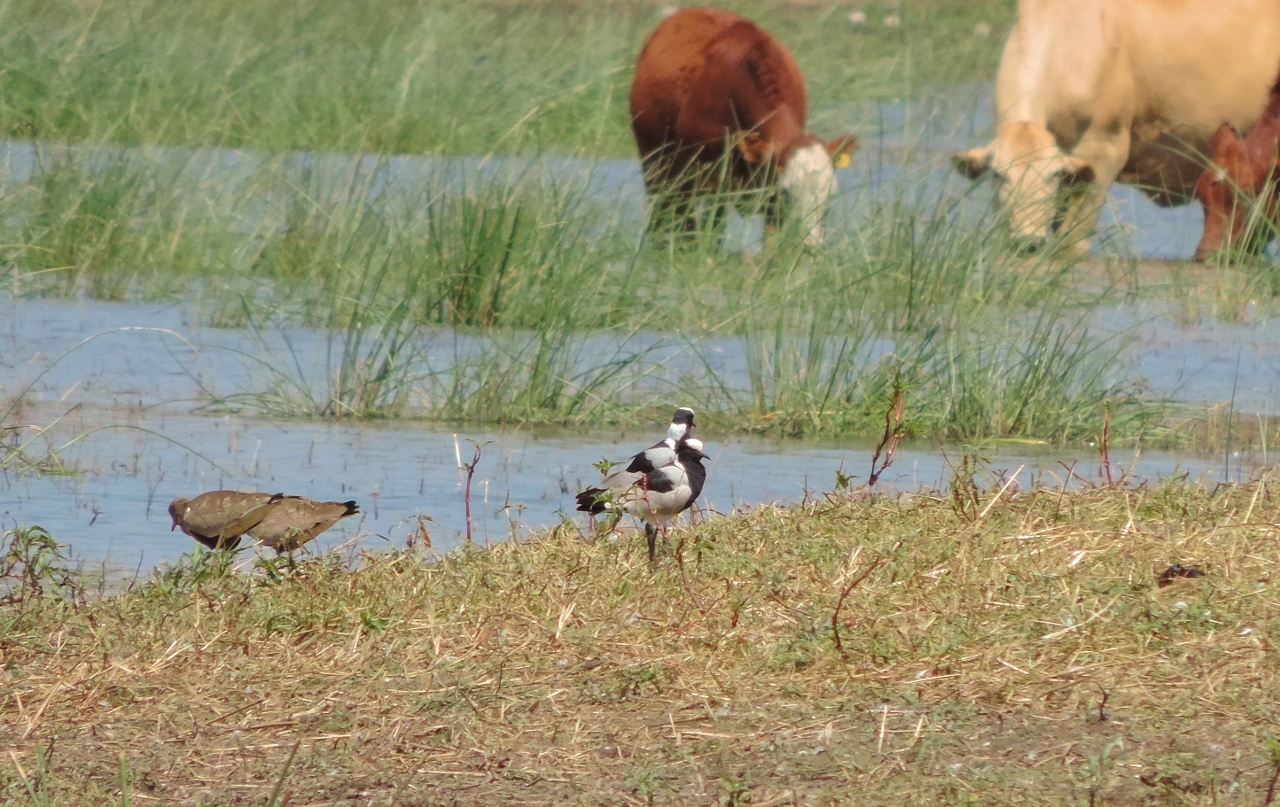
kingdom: Animalia
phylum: Chordata
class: Aves
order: Charadriiformes
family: Charadriidae
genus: Vanellus
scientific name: Vanellus armatus
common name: Blacksmith lapwing
